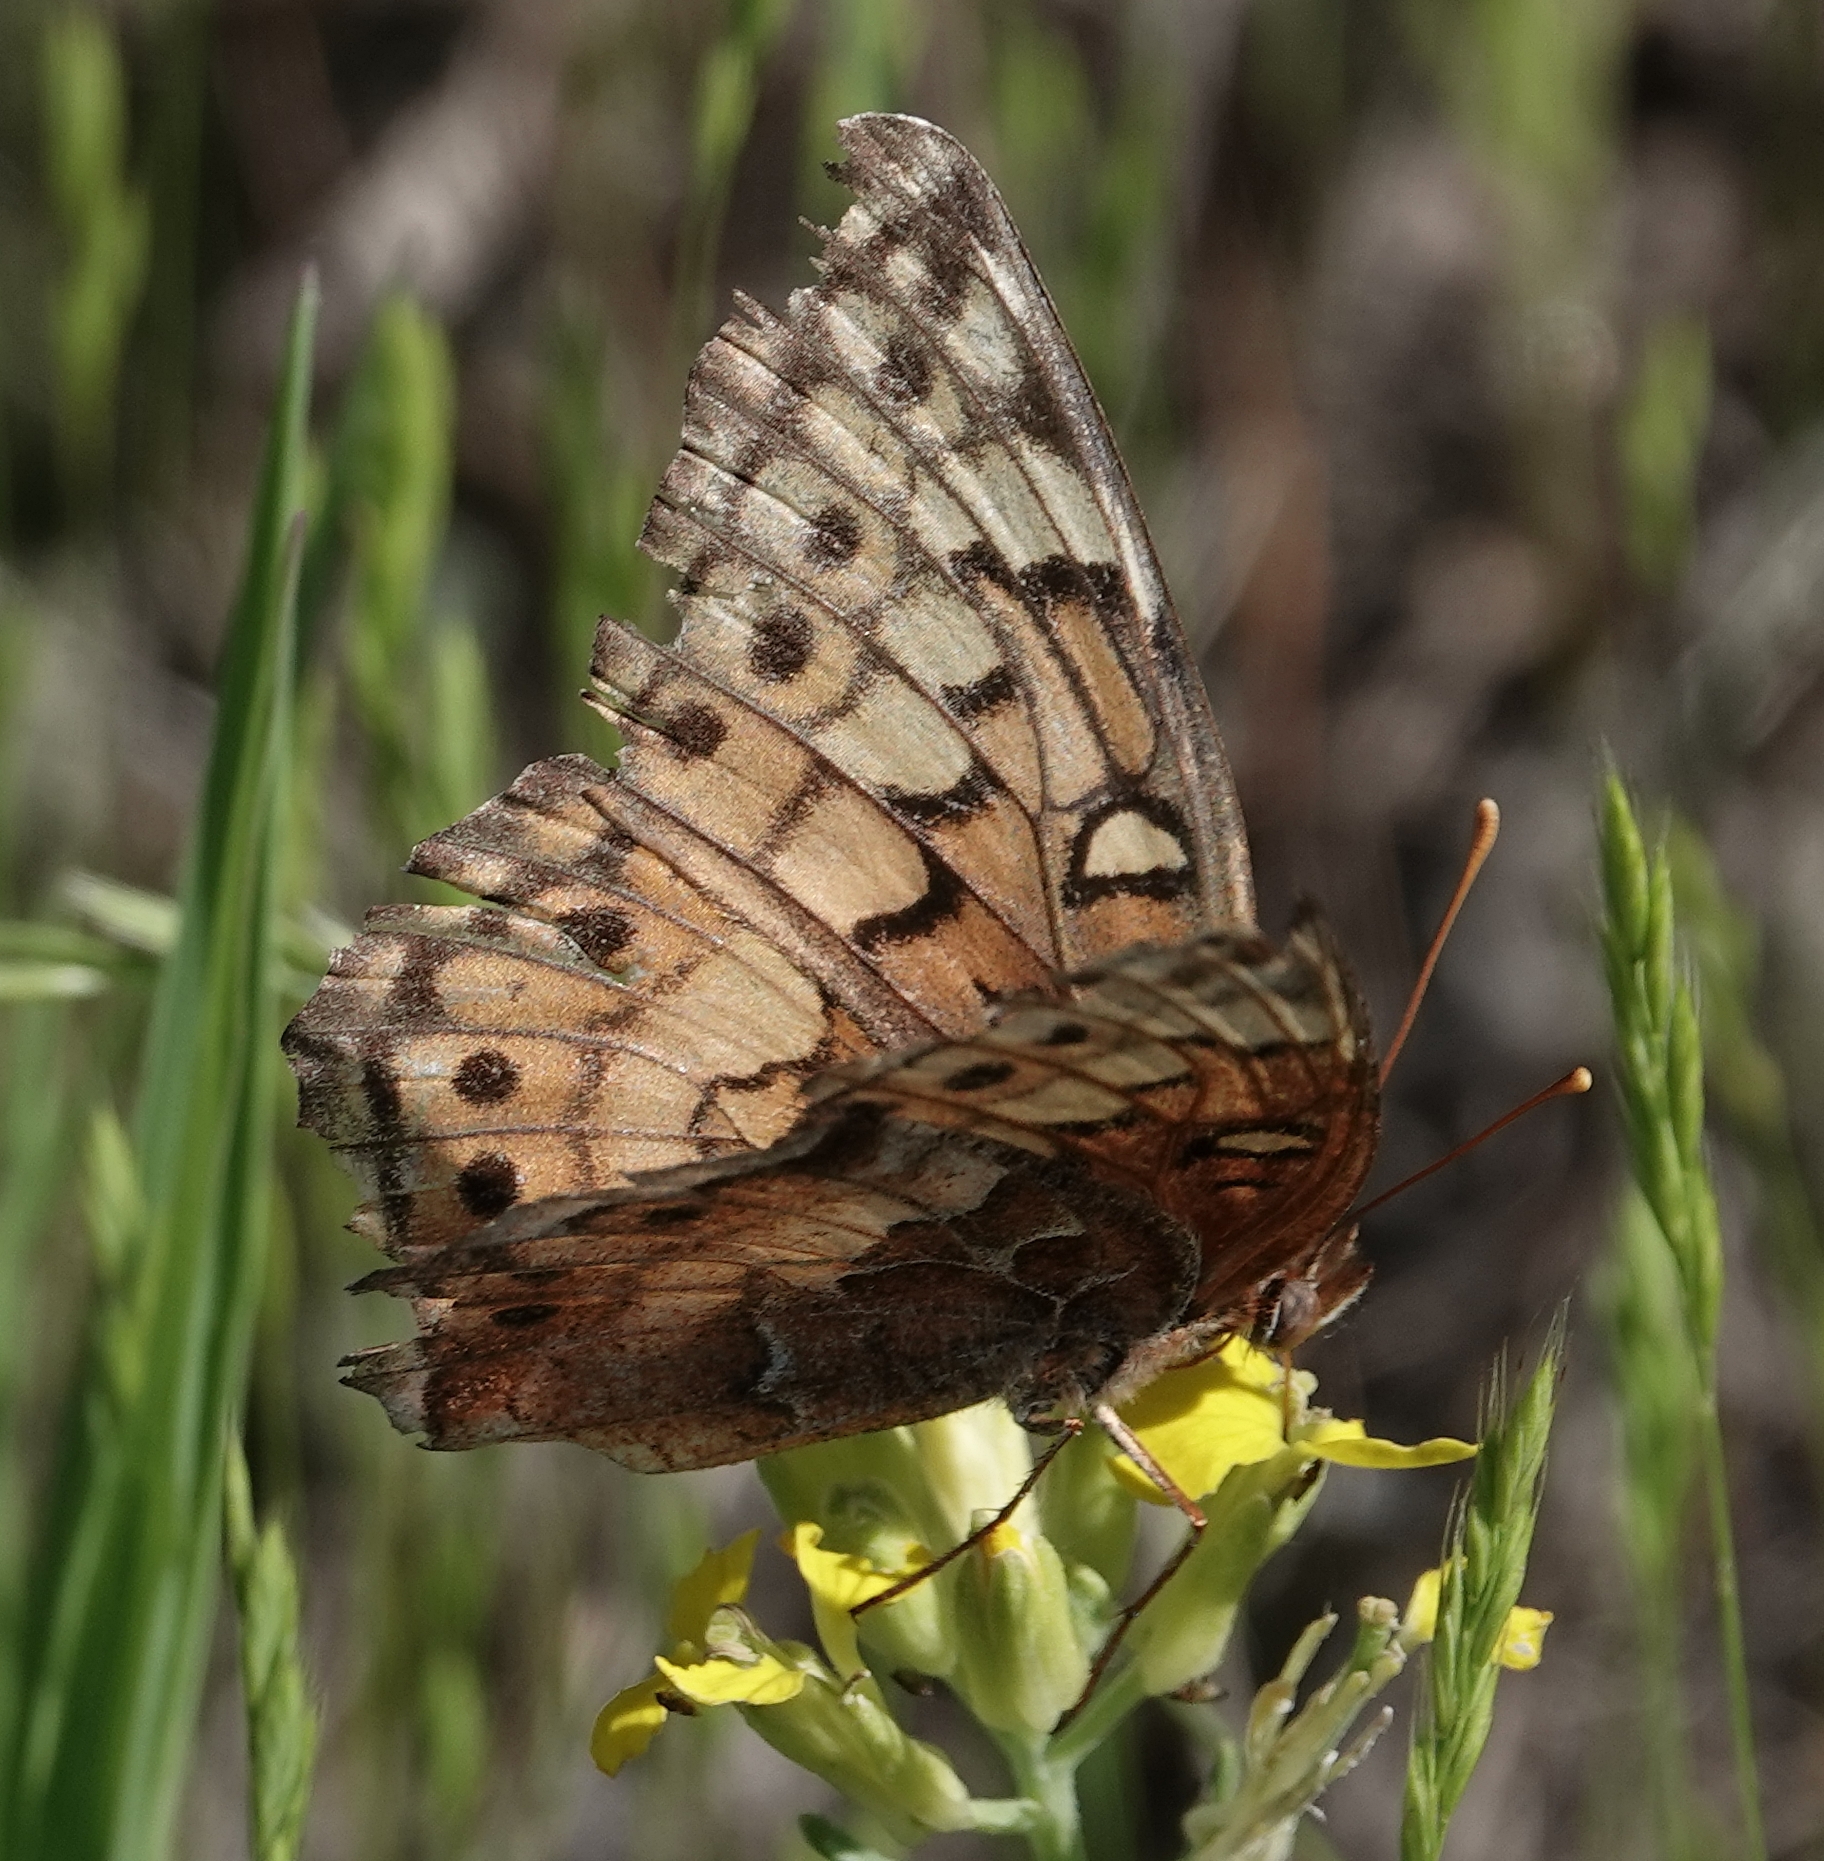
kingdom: Animalia
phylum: Arthropoda
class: Insecta
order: Lepidoptera
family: Nymphalidae
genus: Euptoieta
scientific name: Euptoieta claudia
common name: Variegated fritillary
